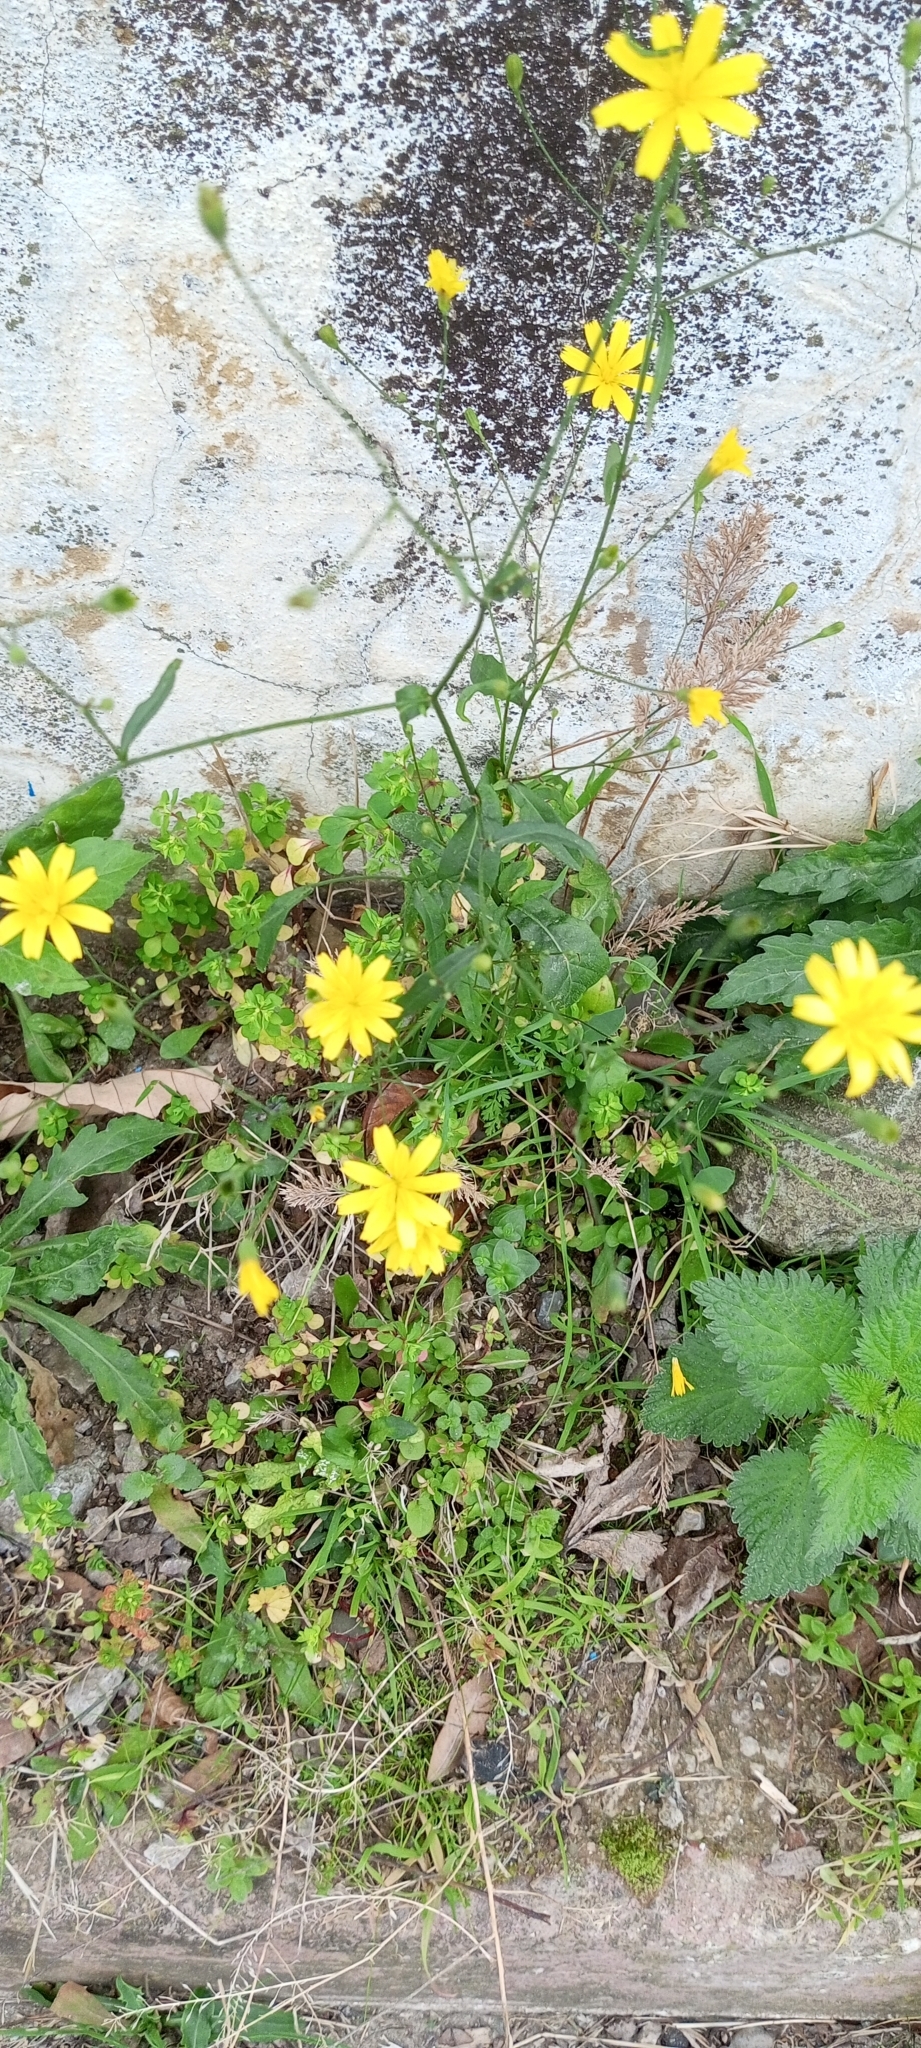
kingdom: Plantae
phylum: Tracheophyta
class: Magnoliopsida
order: Asterales
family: Asteraceae
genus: Lapsana
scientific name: Lapsana communis
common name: Nipplewort
